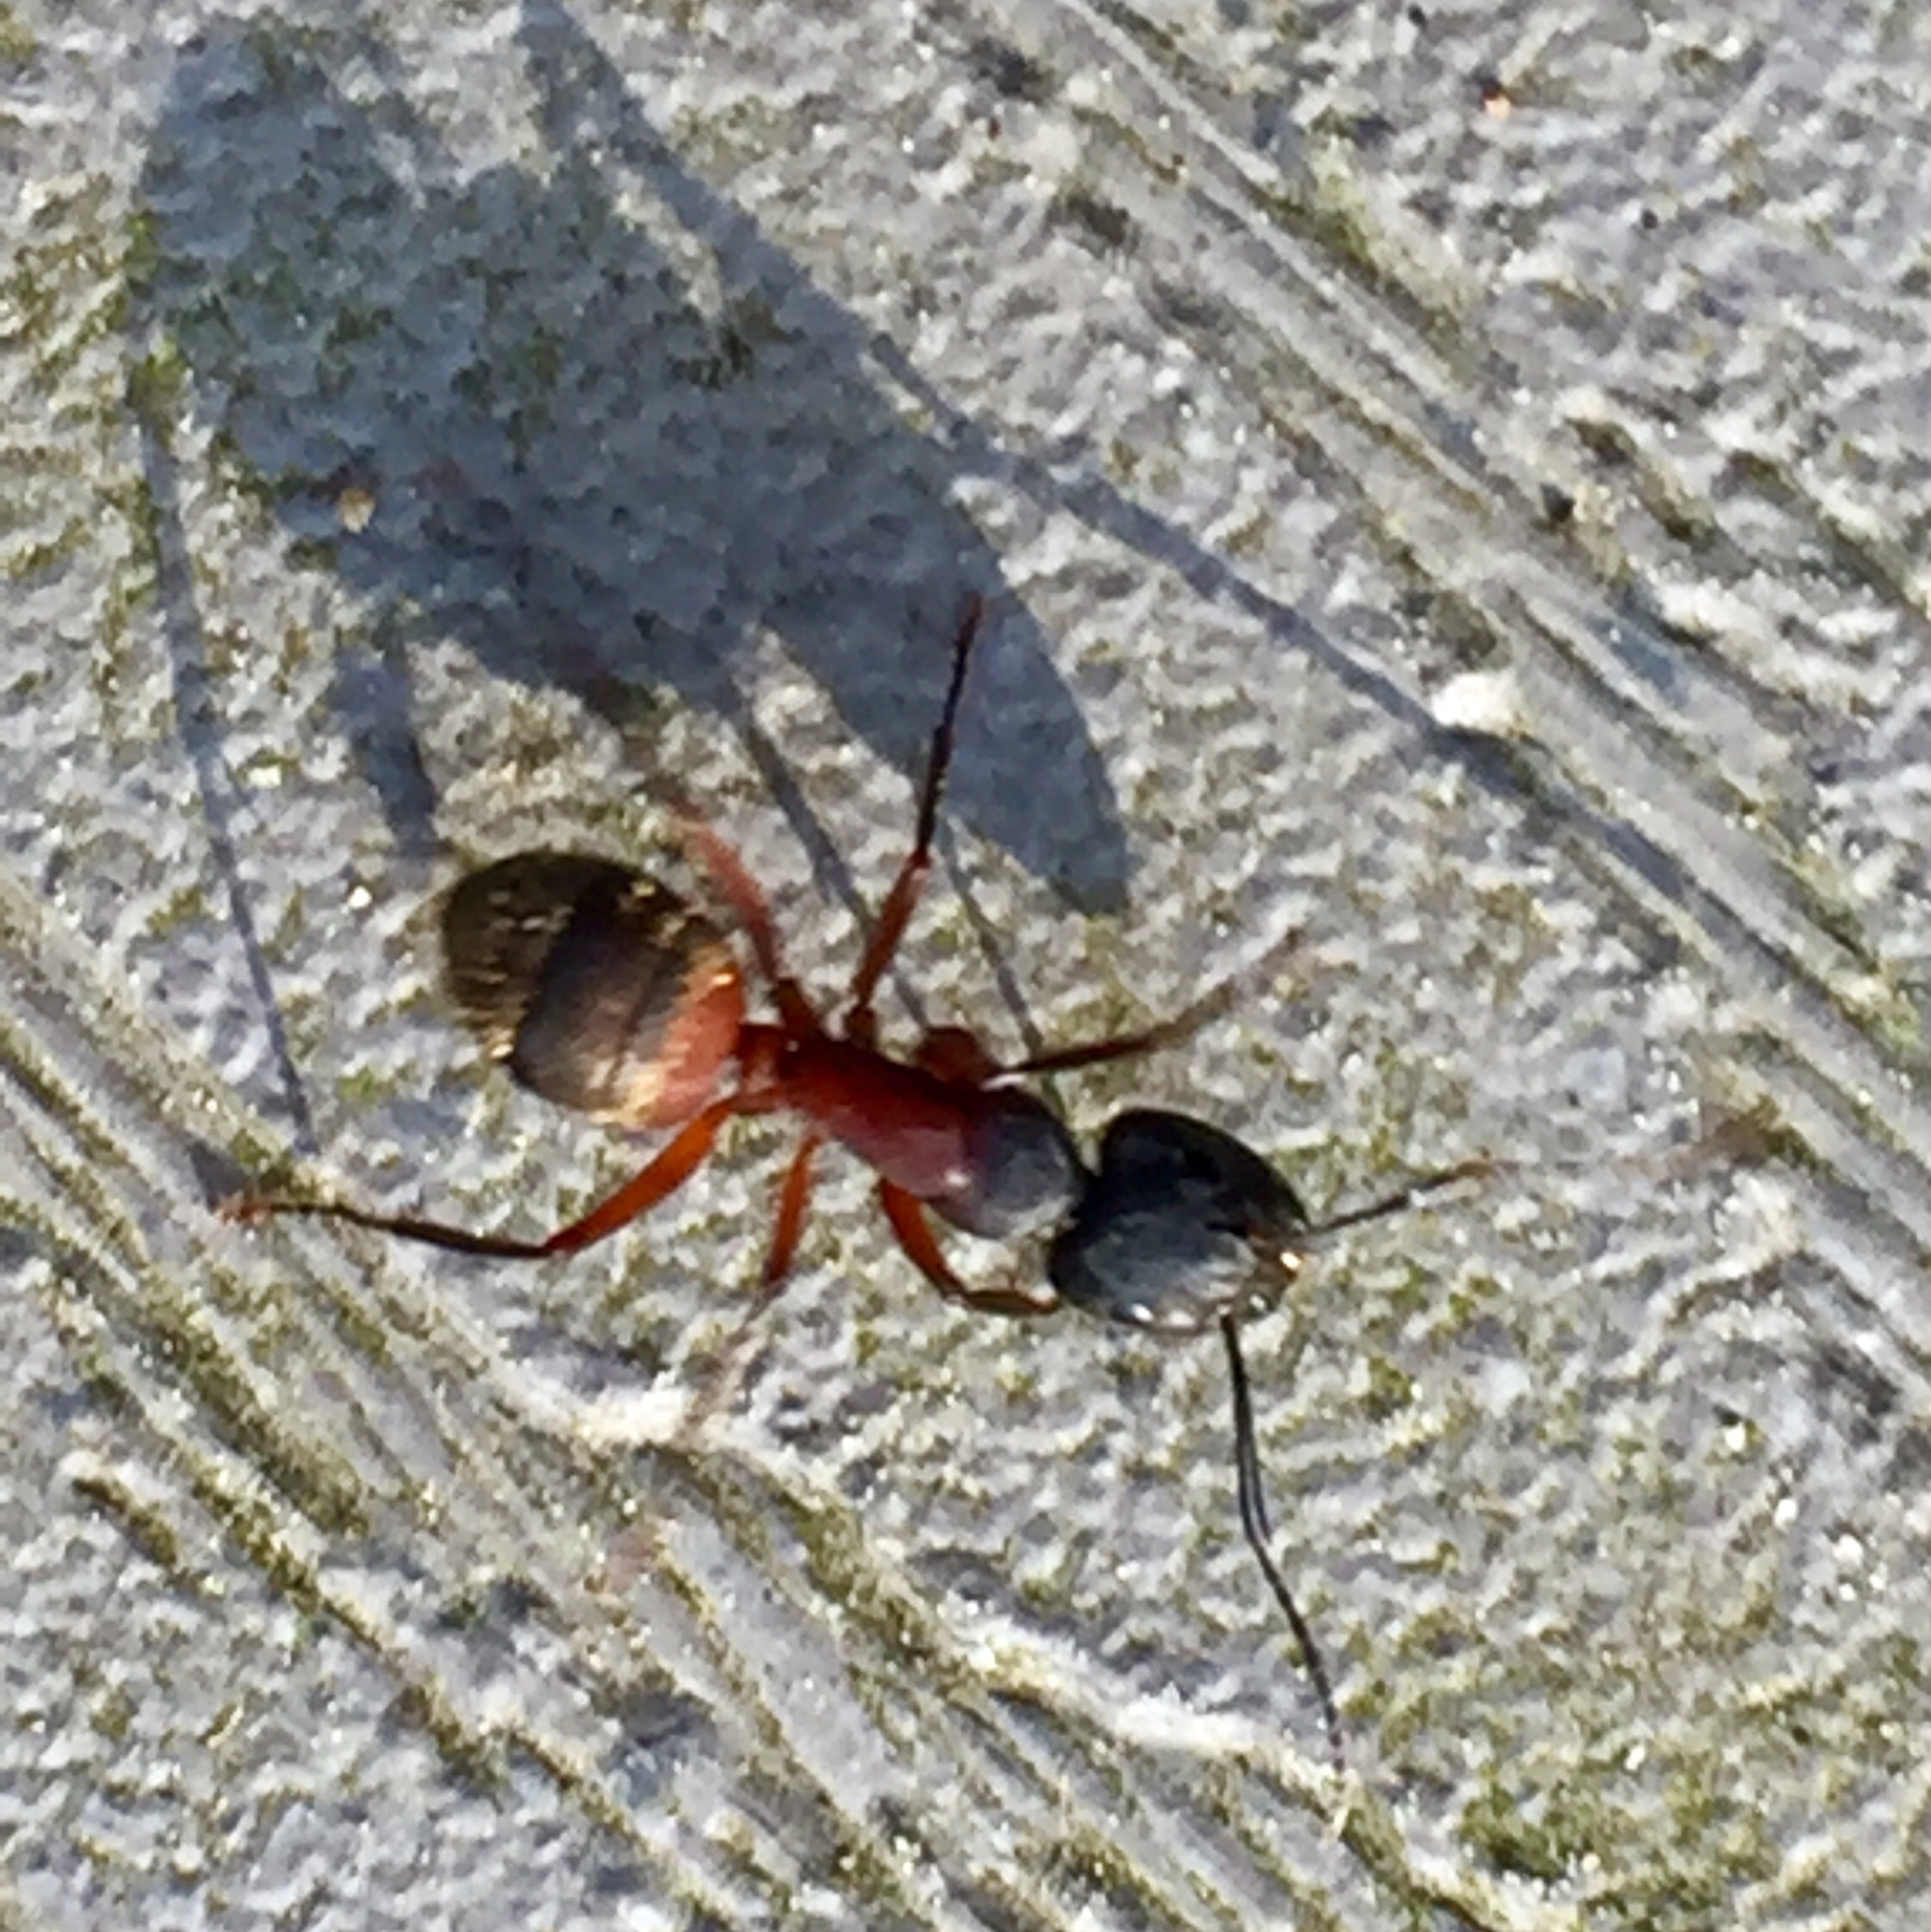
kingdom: Animalia
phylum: Arthropoda
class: Insecta
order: Hymenoptera
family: Formicidae
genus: Camponotus
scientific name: Camponotus chromaiodes
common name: Red carpenter ant
